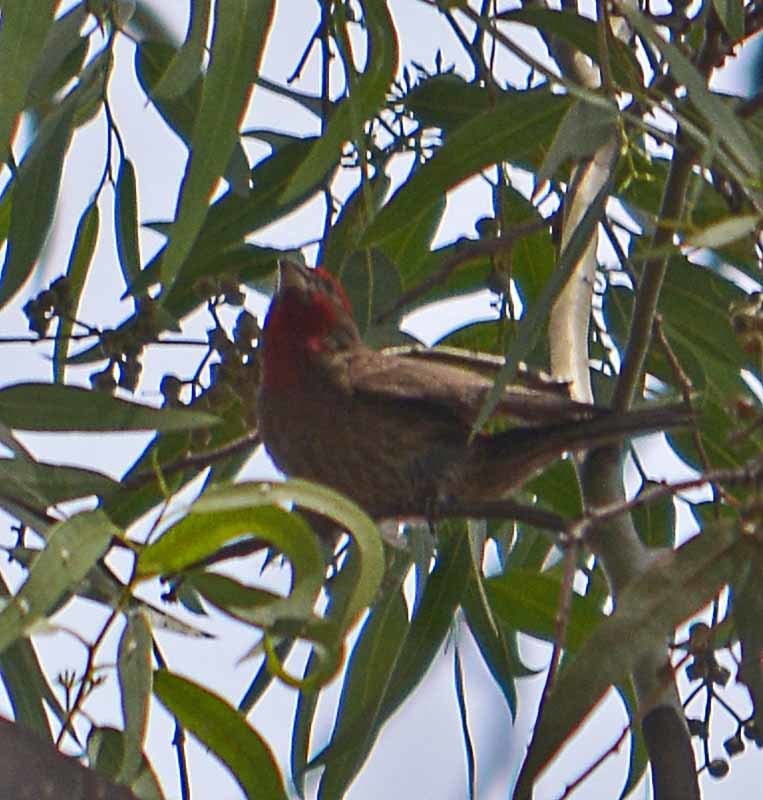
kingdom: Animalia
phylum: Chordata
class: Aves
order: Passeriformes
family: Fringillidae
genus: Haemorhous
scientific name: Haemorhous mexicanus
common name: House finch
